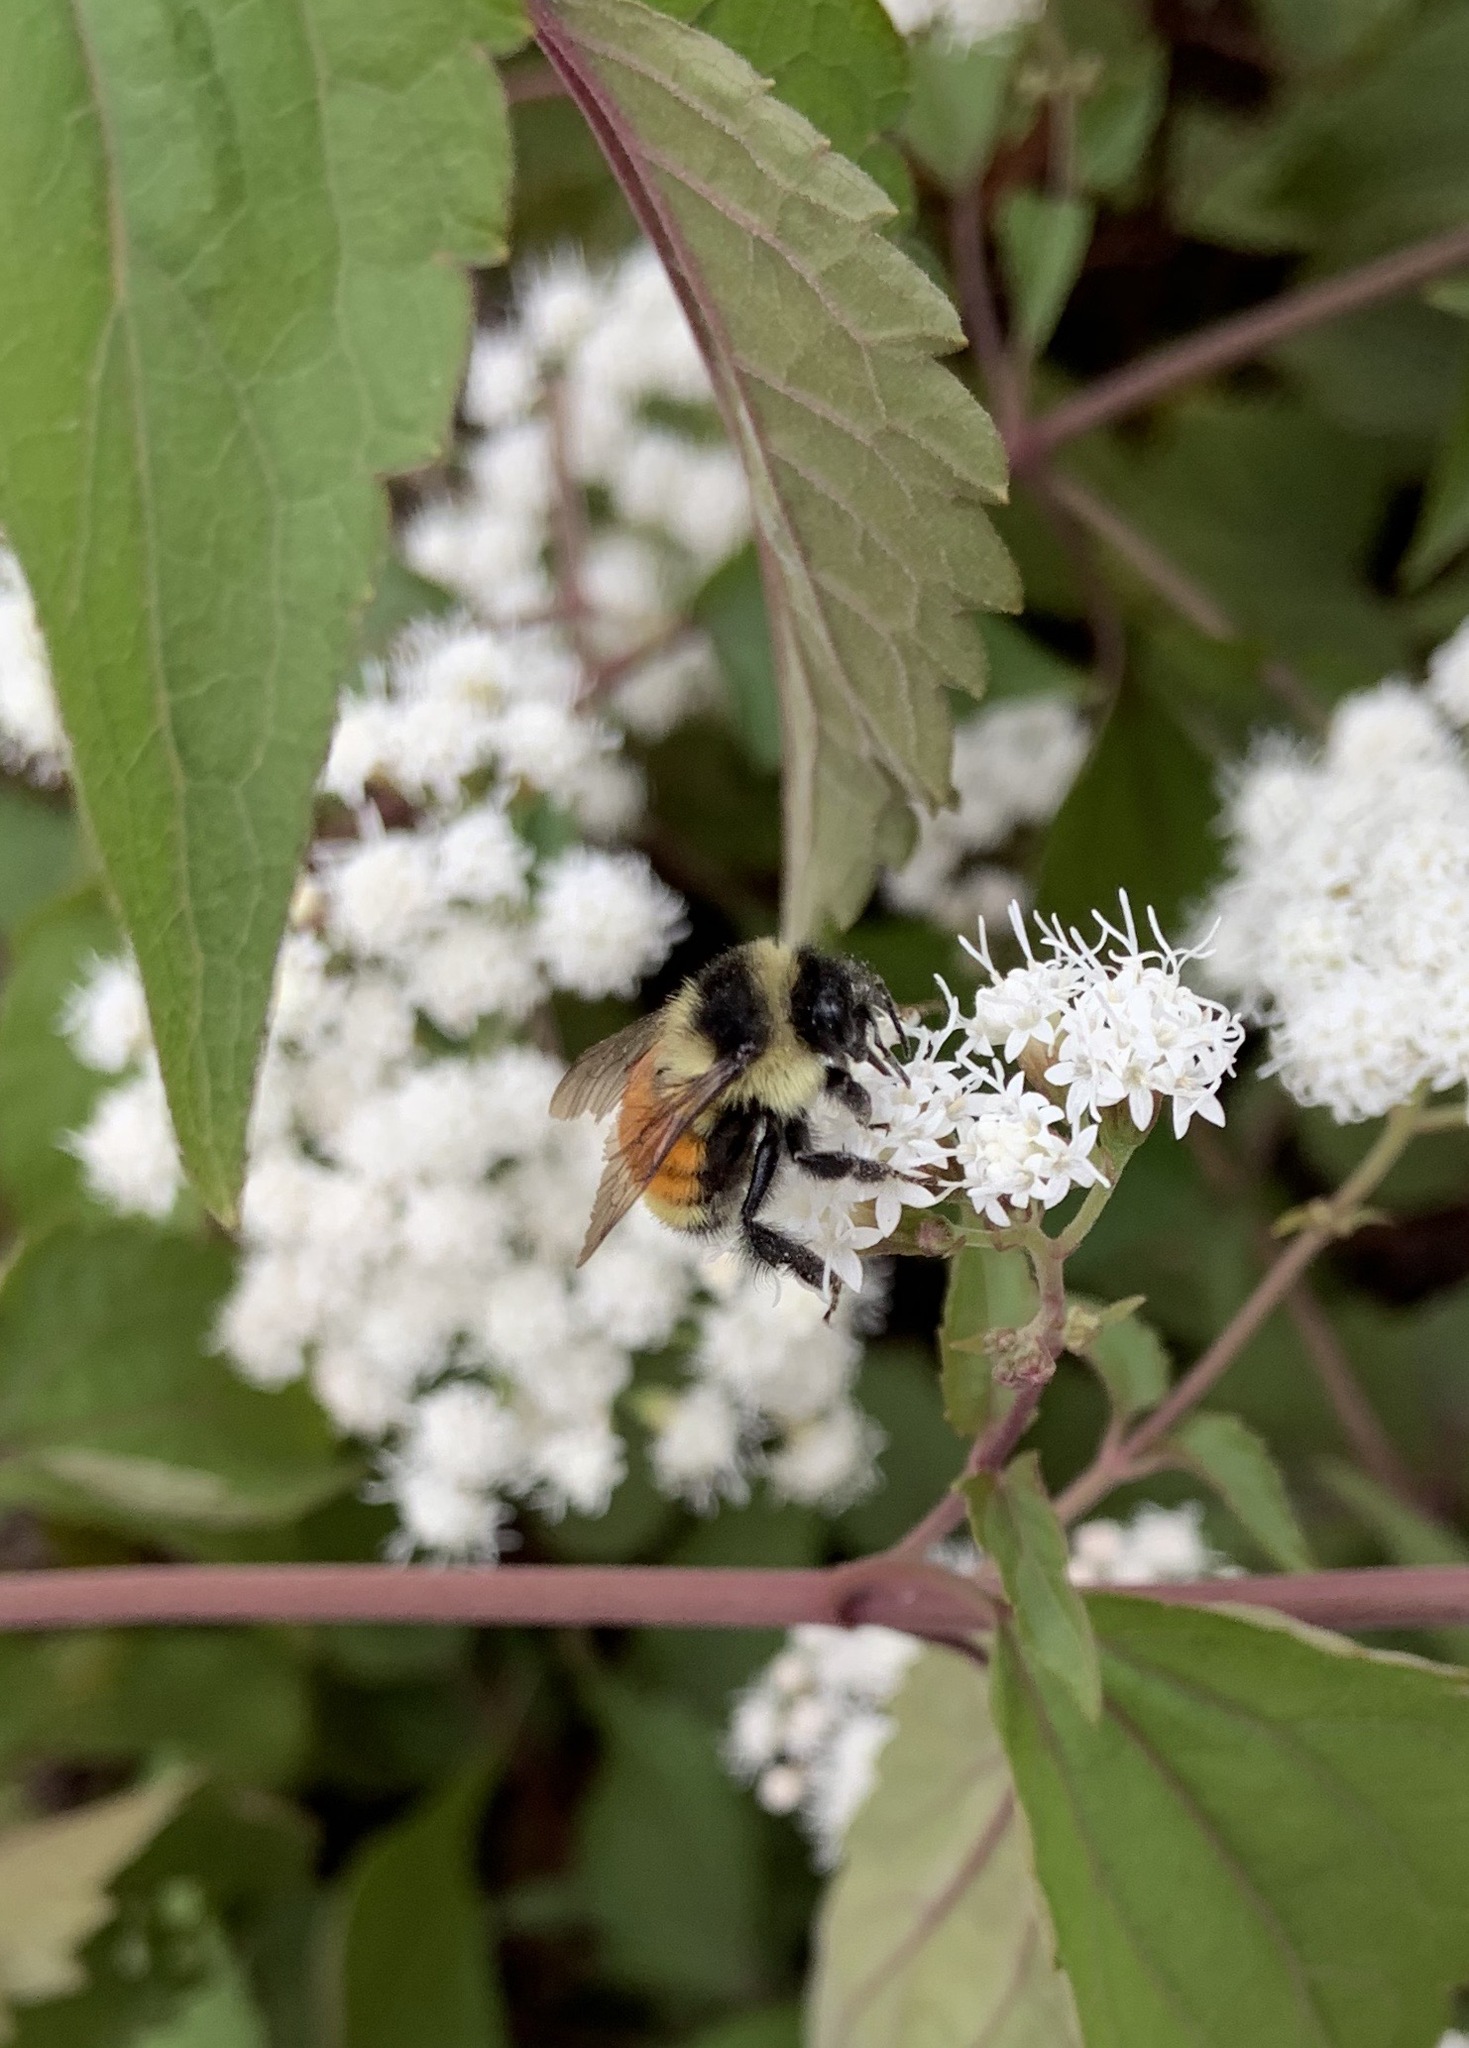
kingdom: Animalia
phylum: Arthropoda
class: Insecta
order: Hymenoptera
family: Apidae
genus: Bombus
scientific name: Bombus ternarius
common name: Tri-colored bumble bee
